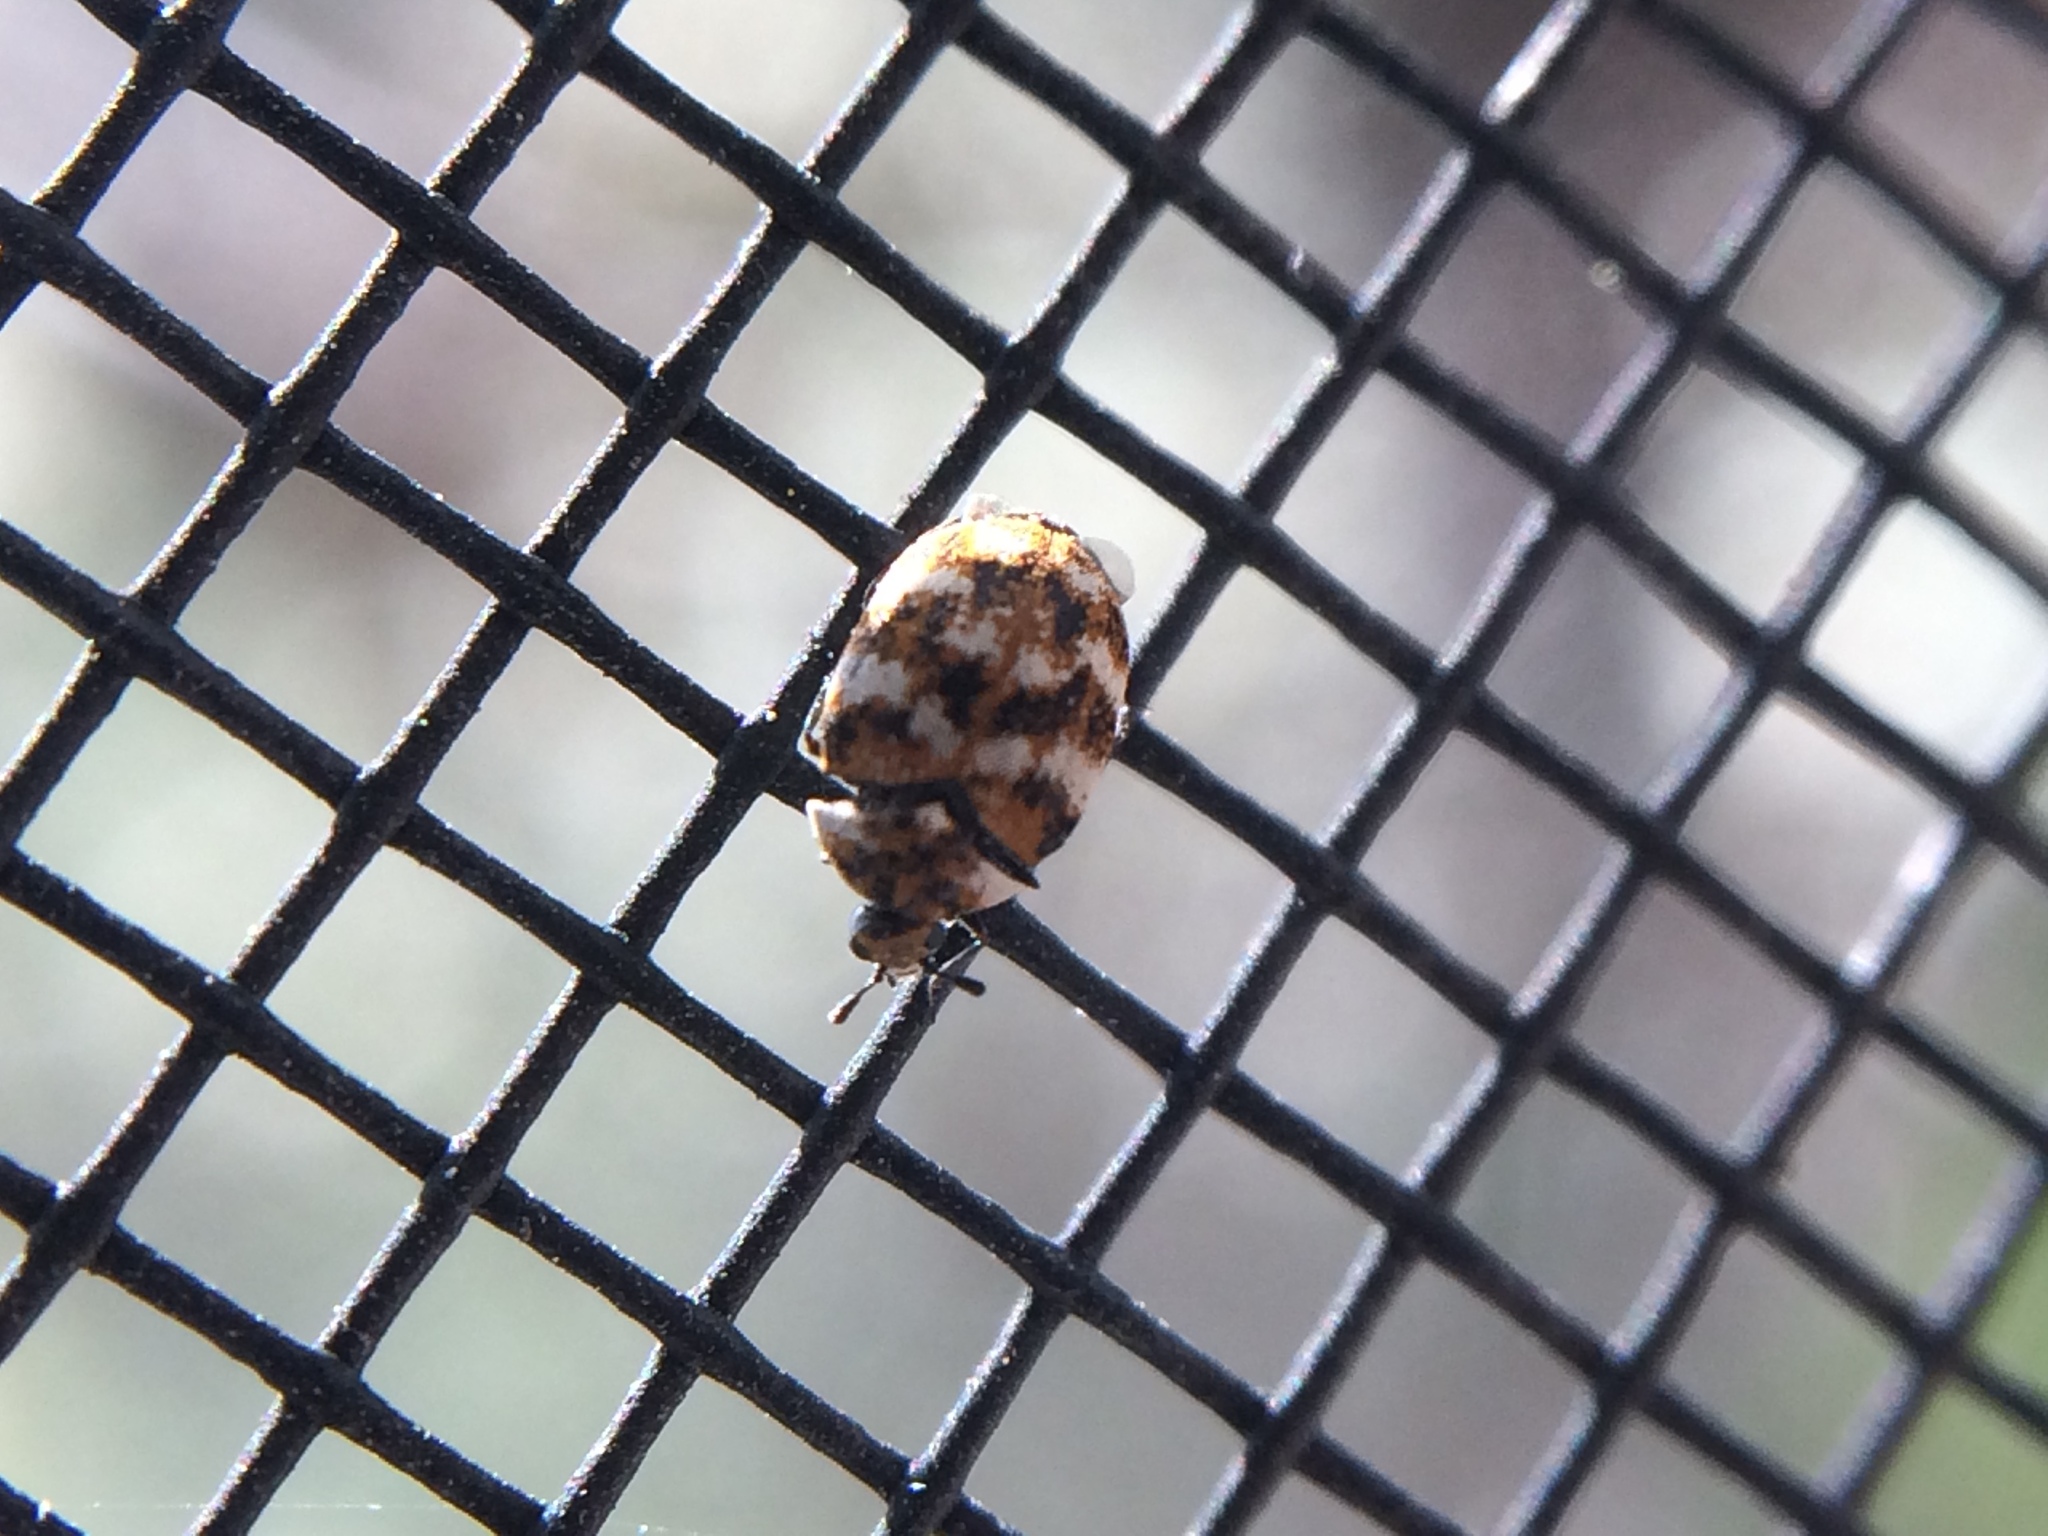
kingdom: Animalia
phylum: Arthropoda
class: Insecta
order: Coleoptera
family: Dermestidae
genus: Anthrenus
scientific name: Anthrenus verbasci
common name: Varied carpet beetle
